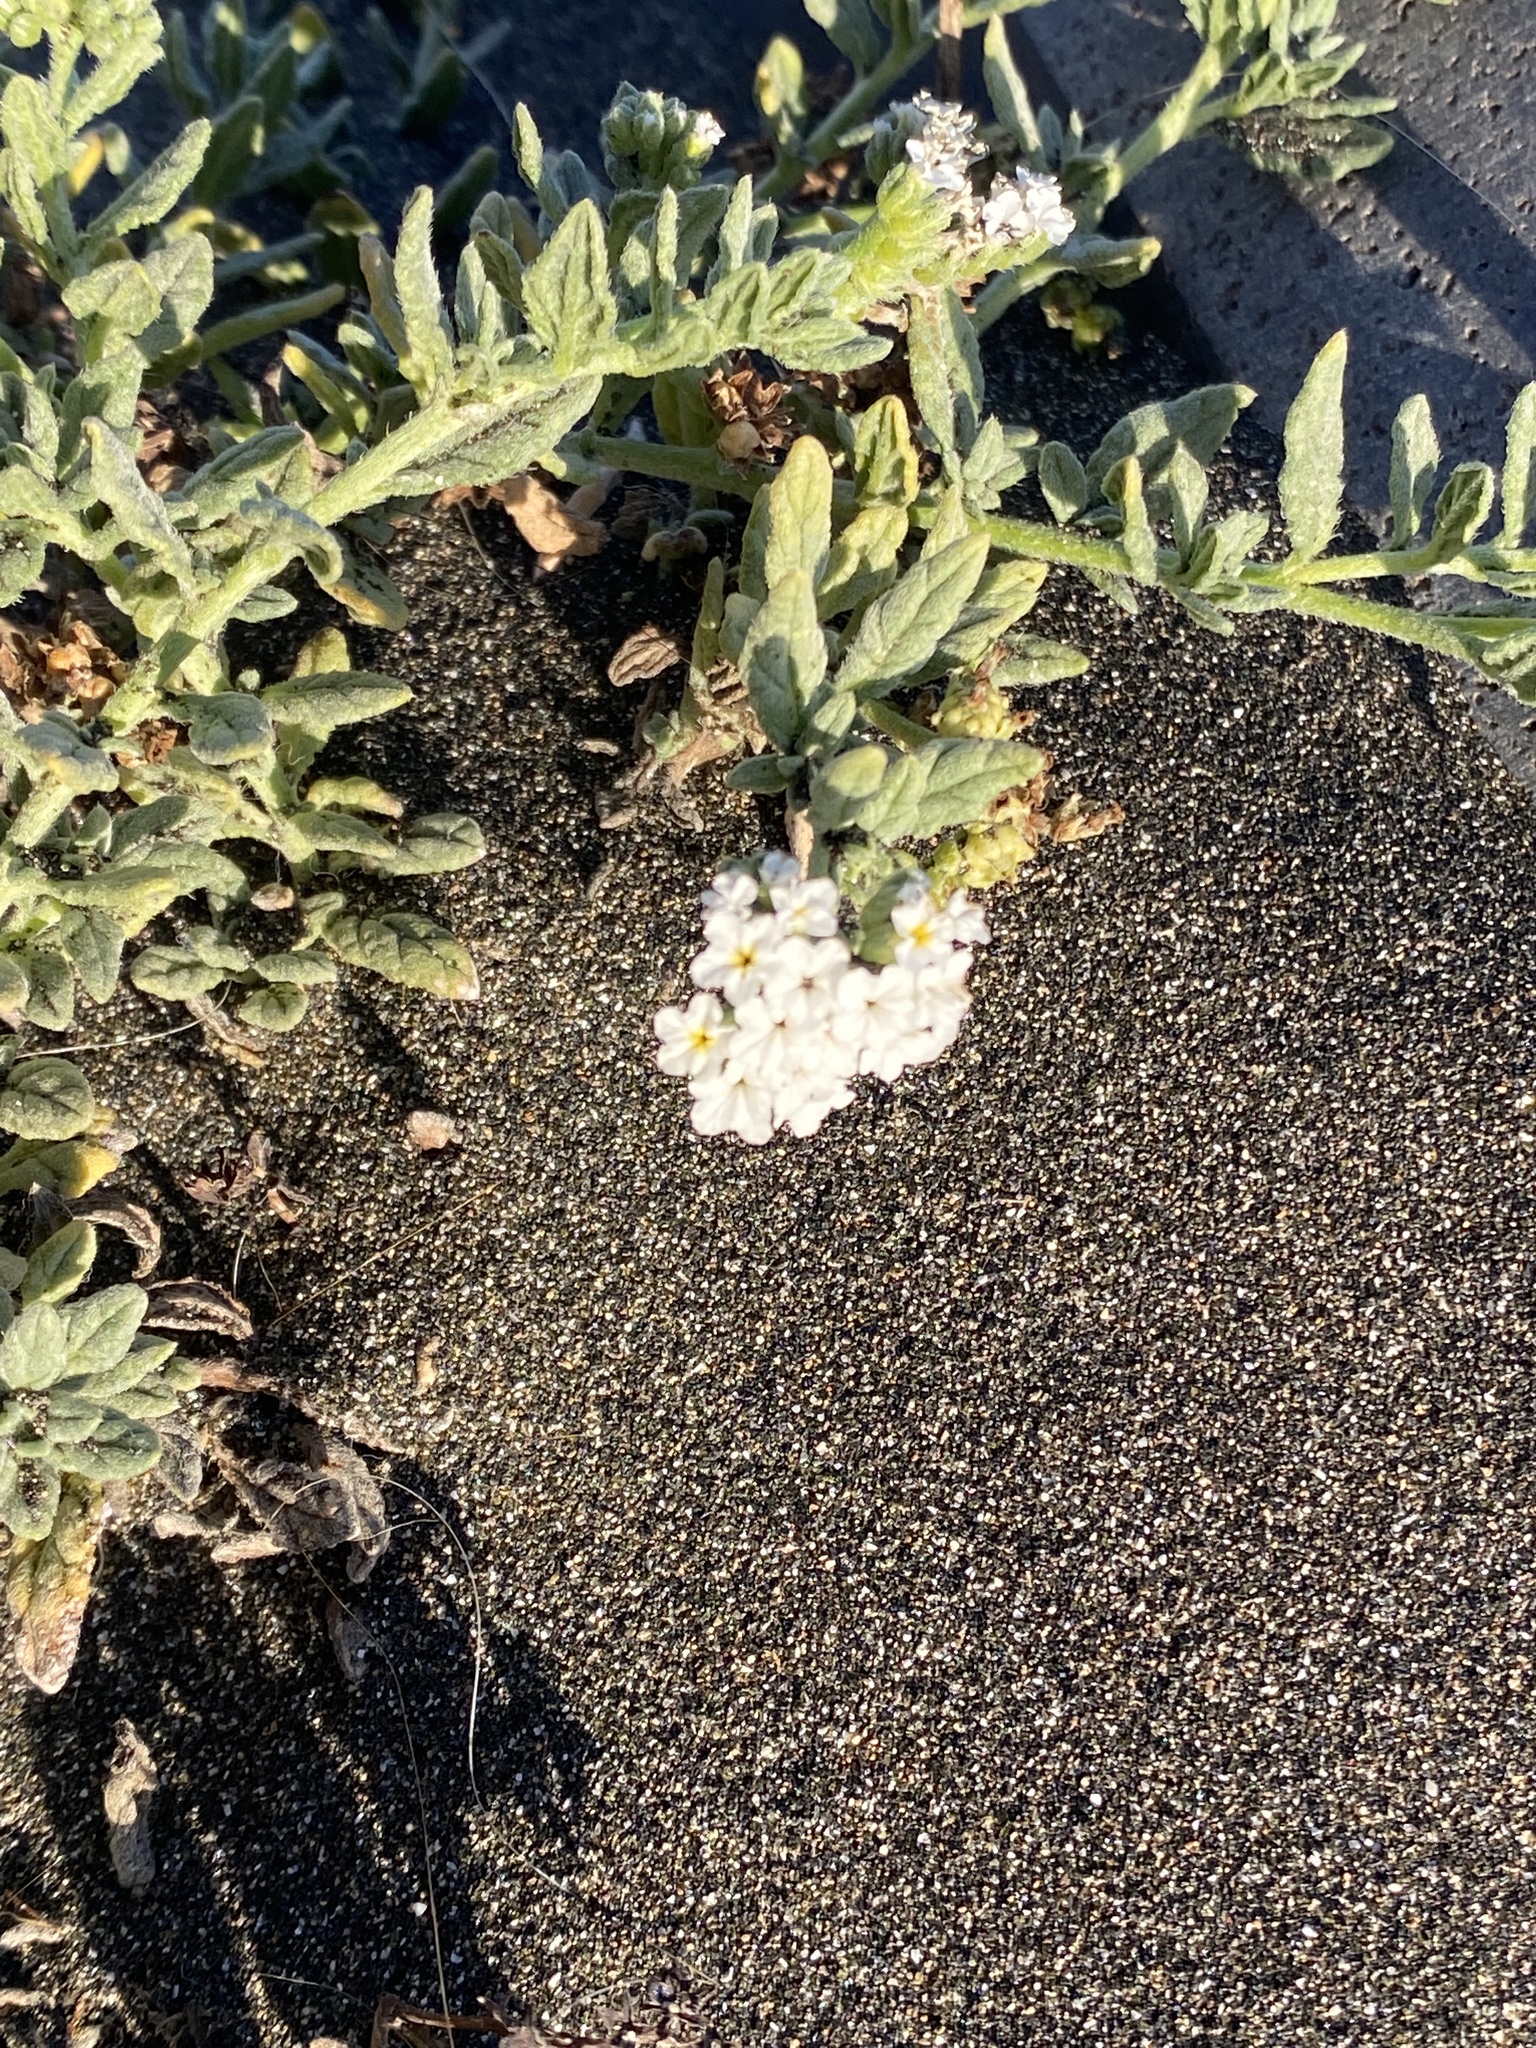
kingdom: Plantae
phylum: Tracheophyta
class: Magnoliopsida
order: Boraginales
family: Heliotropiaceae
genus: Heliotropium
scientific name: Heliotropium ramosissimum
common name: Wavy heliotrope
